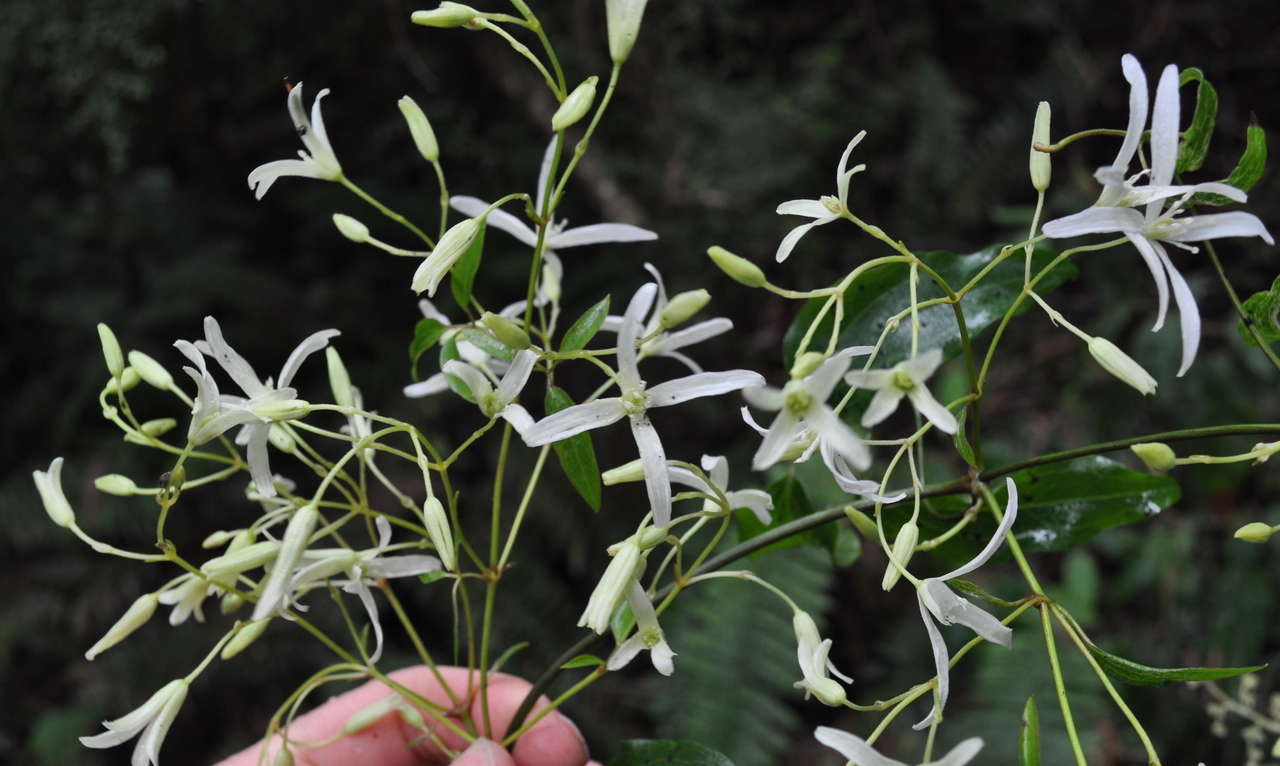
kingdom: Plantae
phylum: Tracheophyta
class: Magnoliopsida
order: Ranunculales
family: Ranunculaceae
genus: Clematis
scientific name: Clematis glycinoides
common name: Forest clematis
